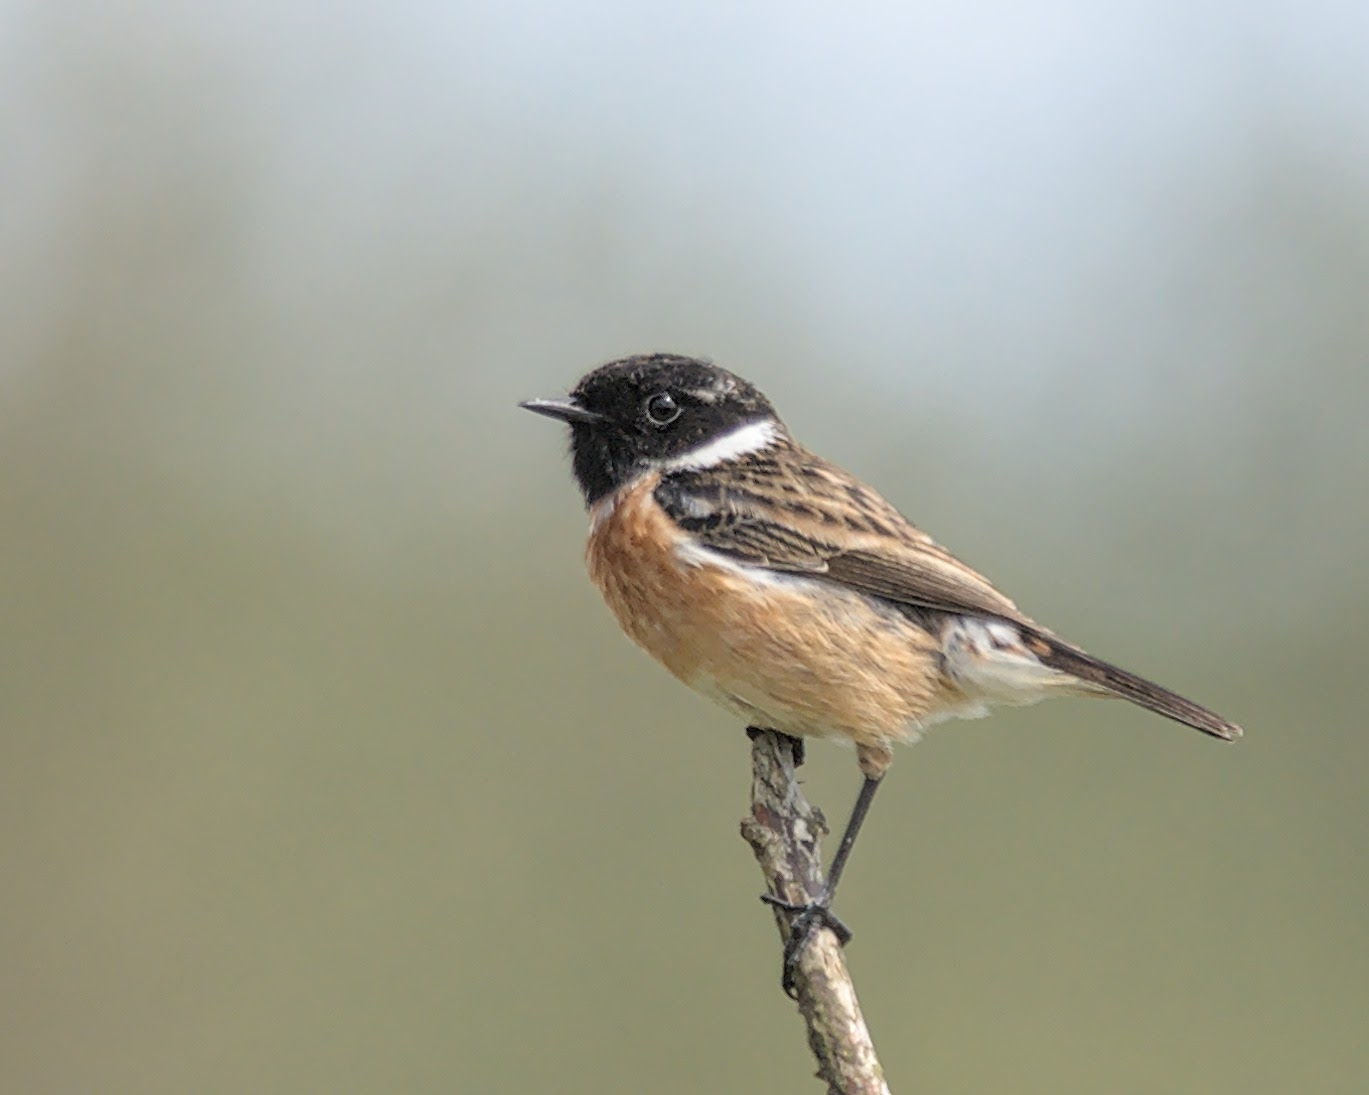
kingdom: Animalia
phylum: Chordata
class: Aves
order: Passeriformes
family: Muscicapidae
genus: Saxicola
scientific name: Saxicola rubicola
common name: European stonechat
